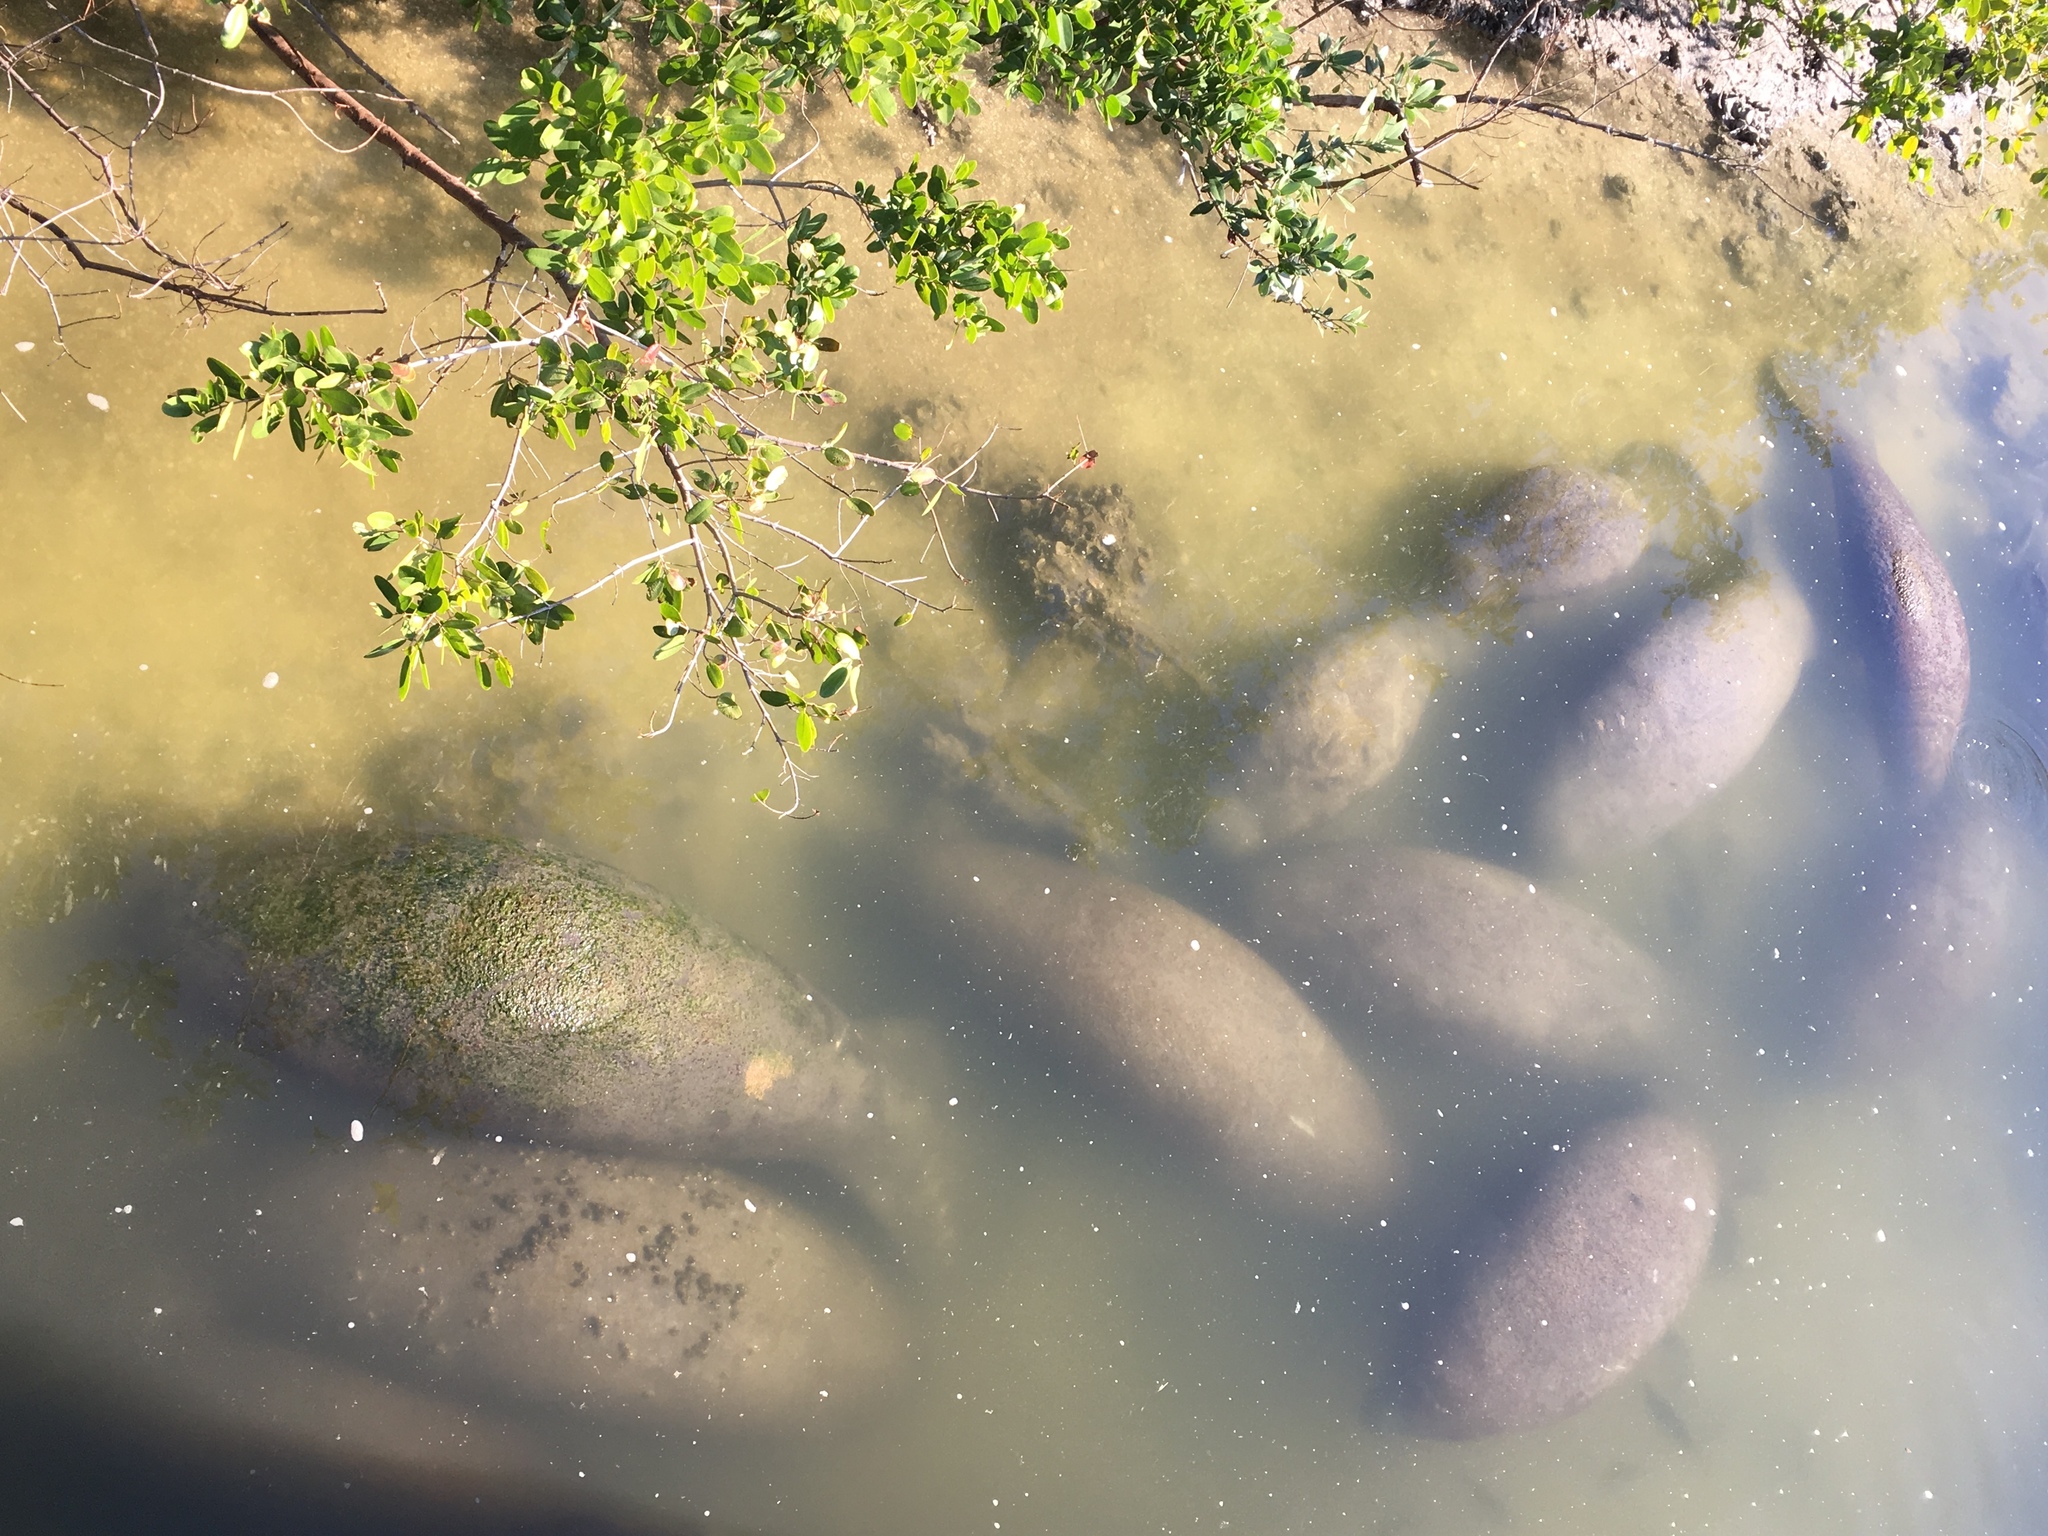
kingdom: Animalia
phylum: Chordata
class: Mammalia
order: Sirenia
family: Trichechidae
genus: Trichechus
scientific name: Trichechus manatus
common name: West indian manatee
